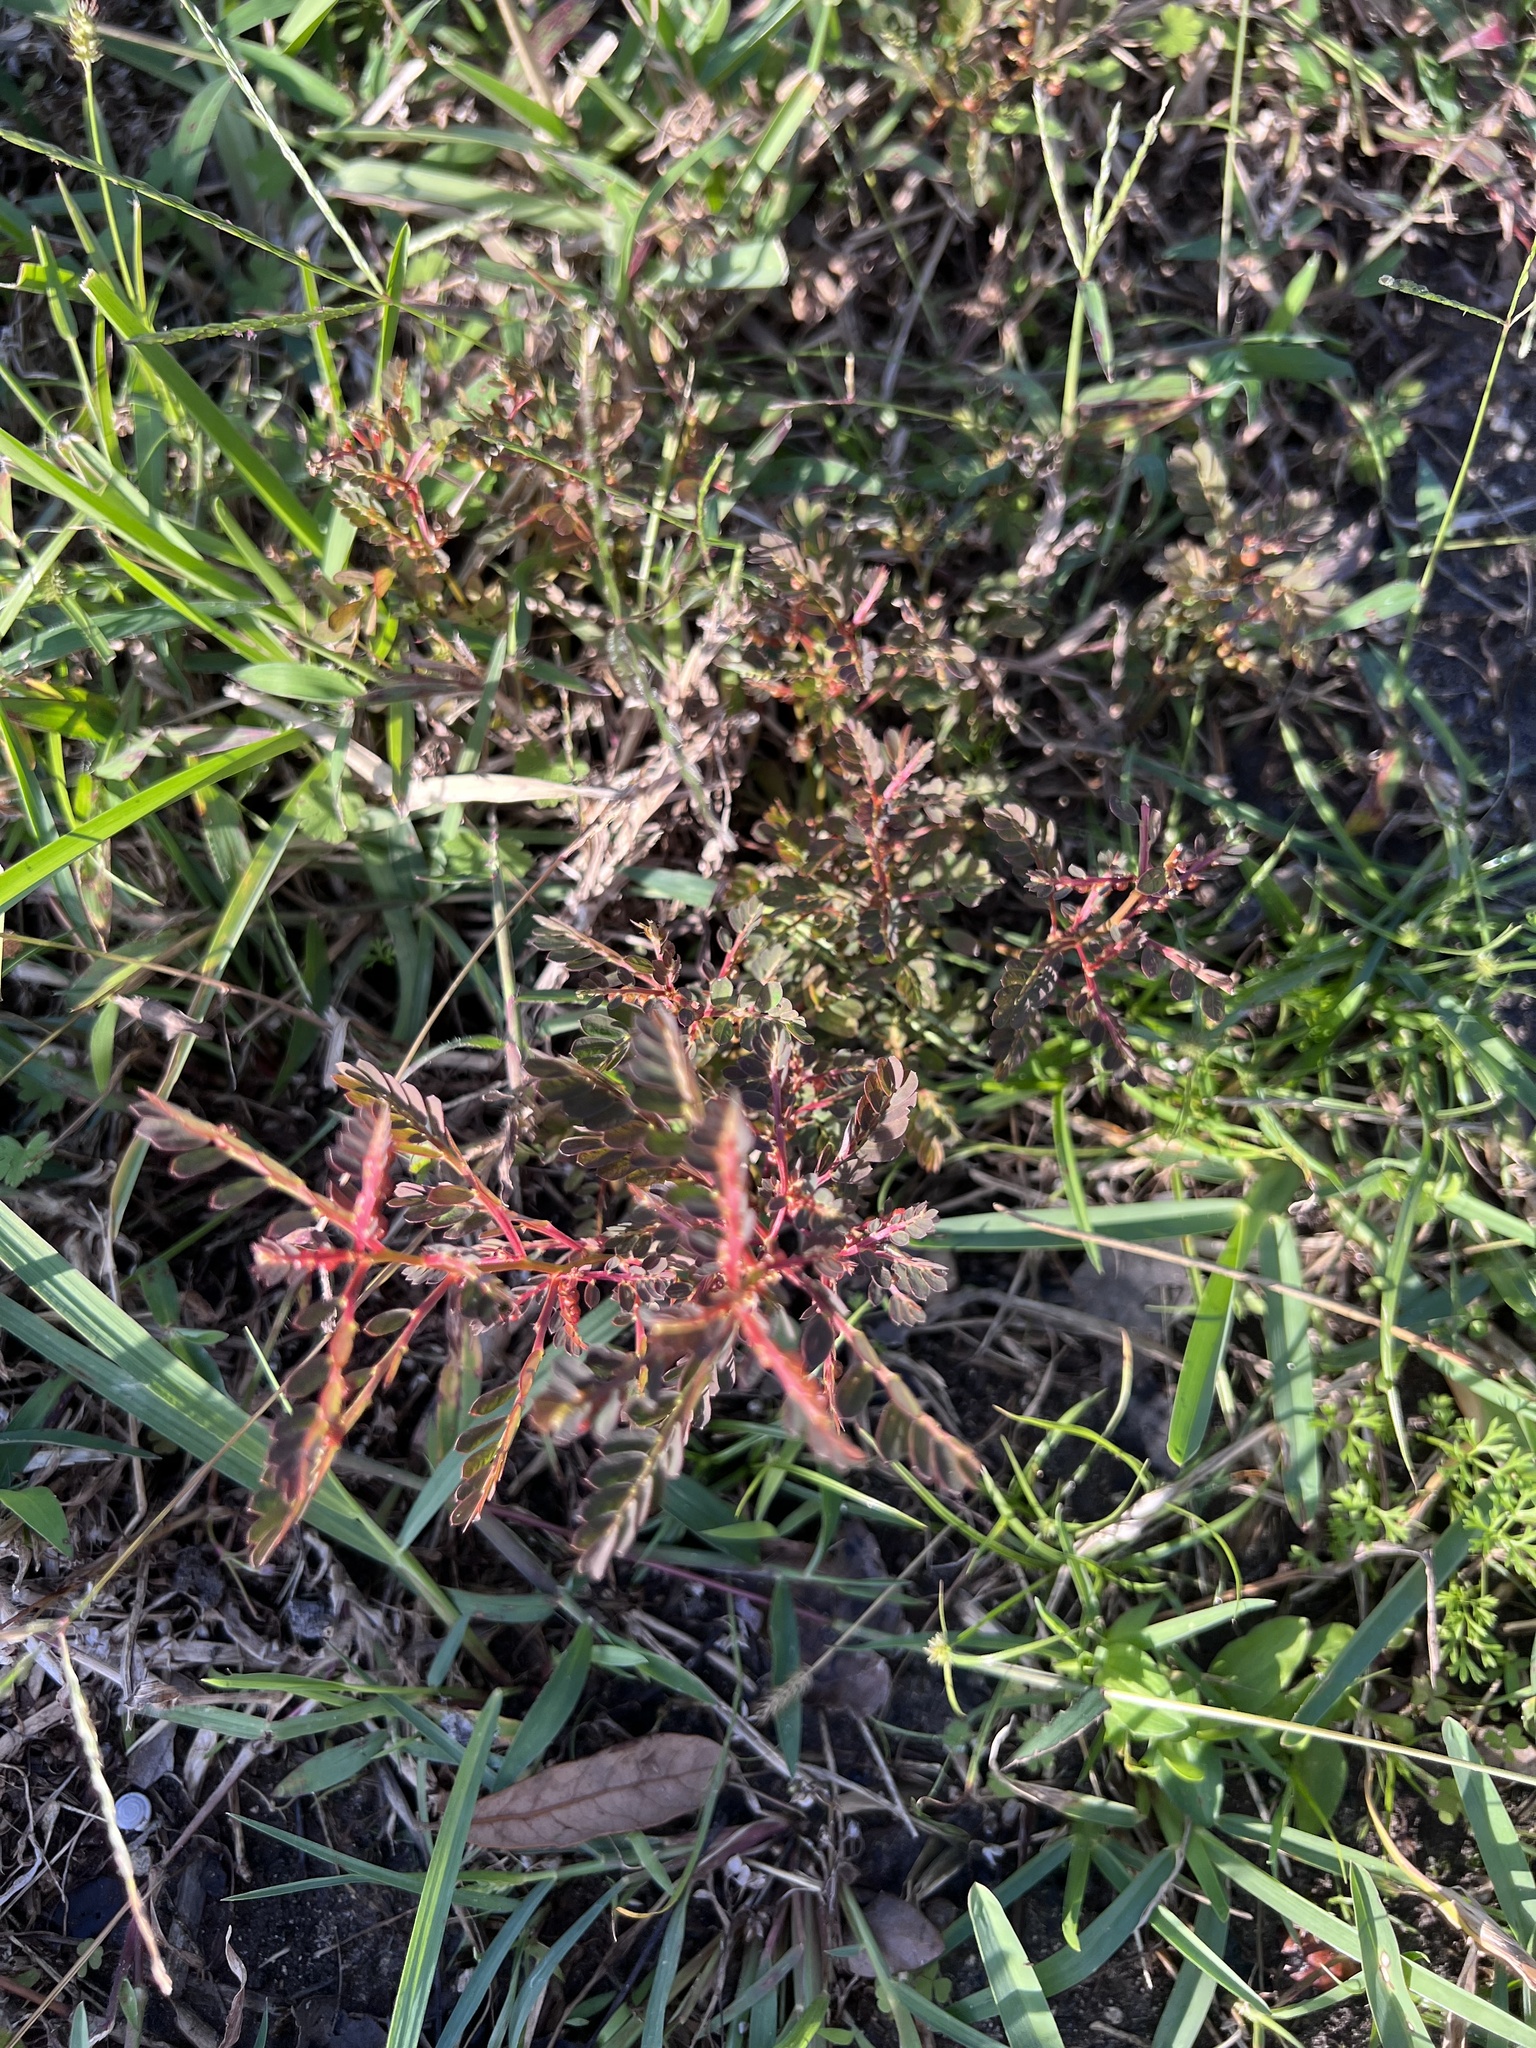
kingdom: Plantae
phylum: Tracheophyta
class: Magnoliopsida
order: Malpighiales
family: Phyllanthaceae
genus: Phyllanthus
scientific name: Phyllanthus urinaria
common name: Chamber bitter
